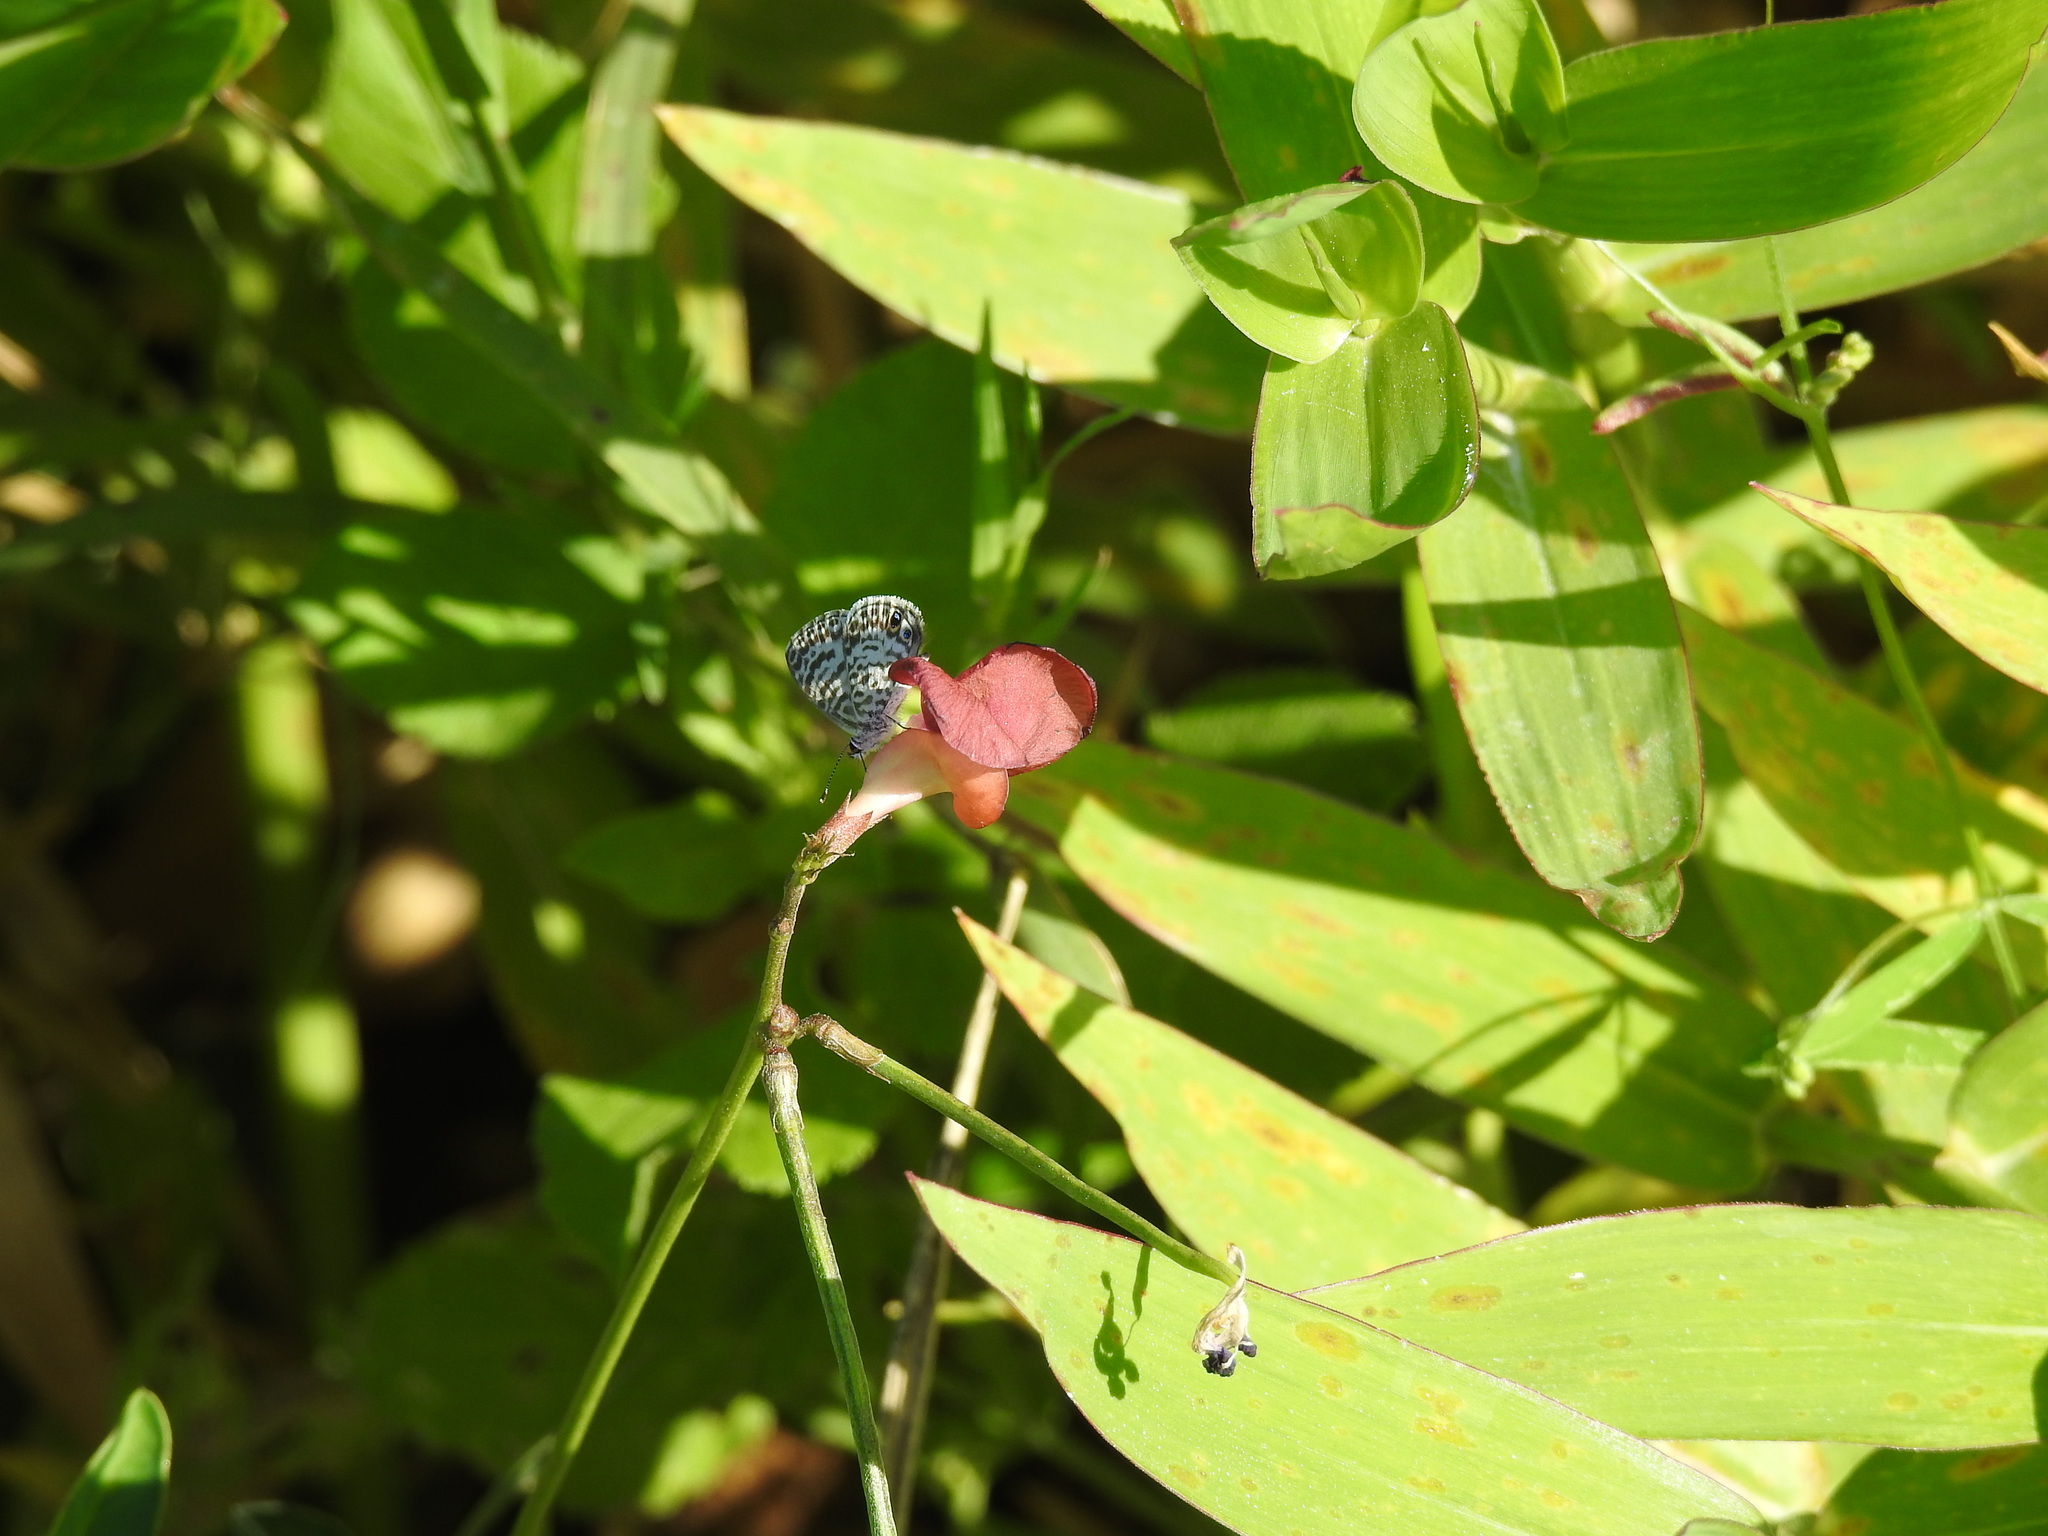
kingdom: Animalia
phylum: Arthropoda
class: Insecta
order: Lepidoptera
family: Lycaenidae
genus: Leptotes
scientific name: Leptotes cassius
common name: Cassius blue
